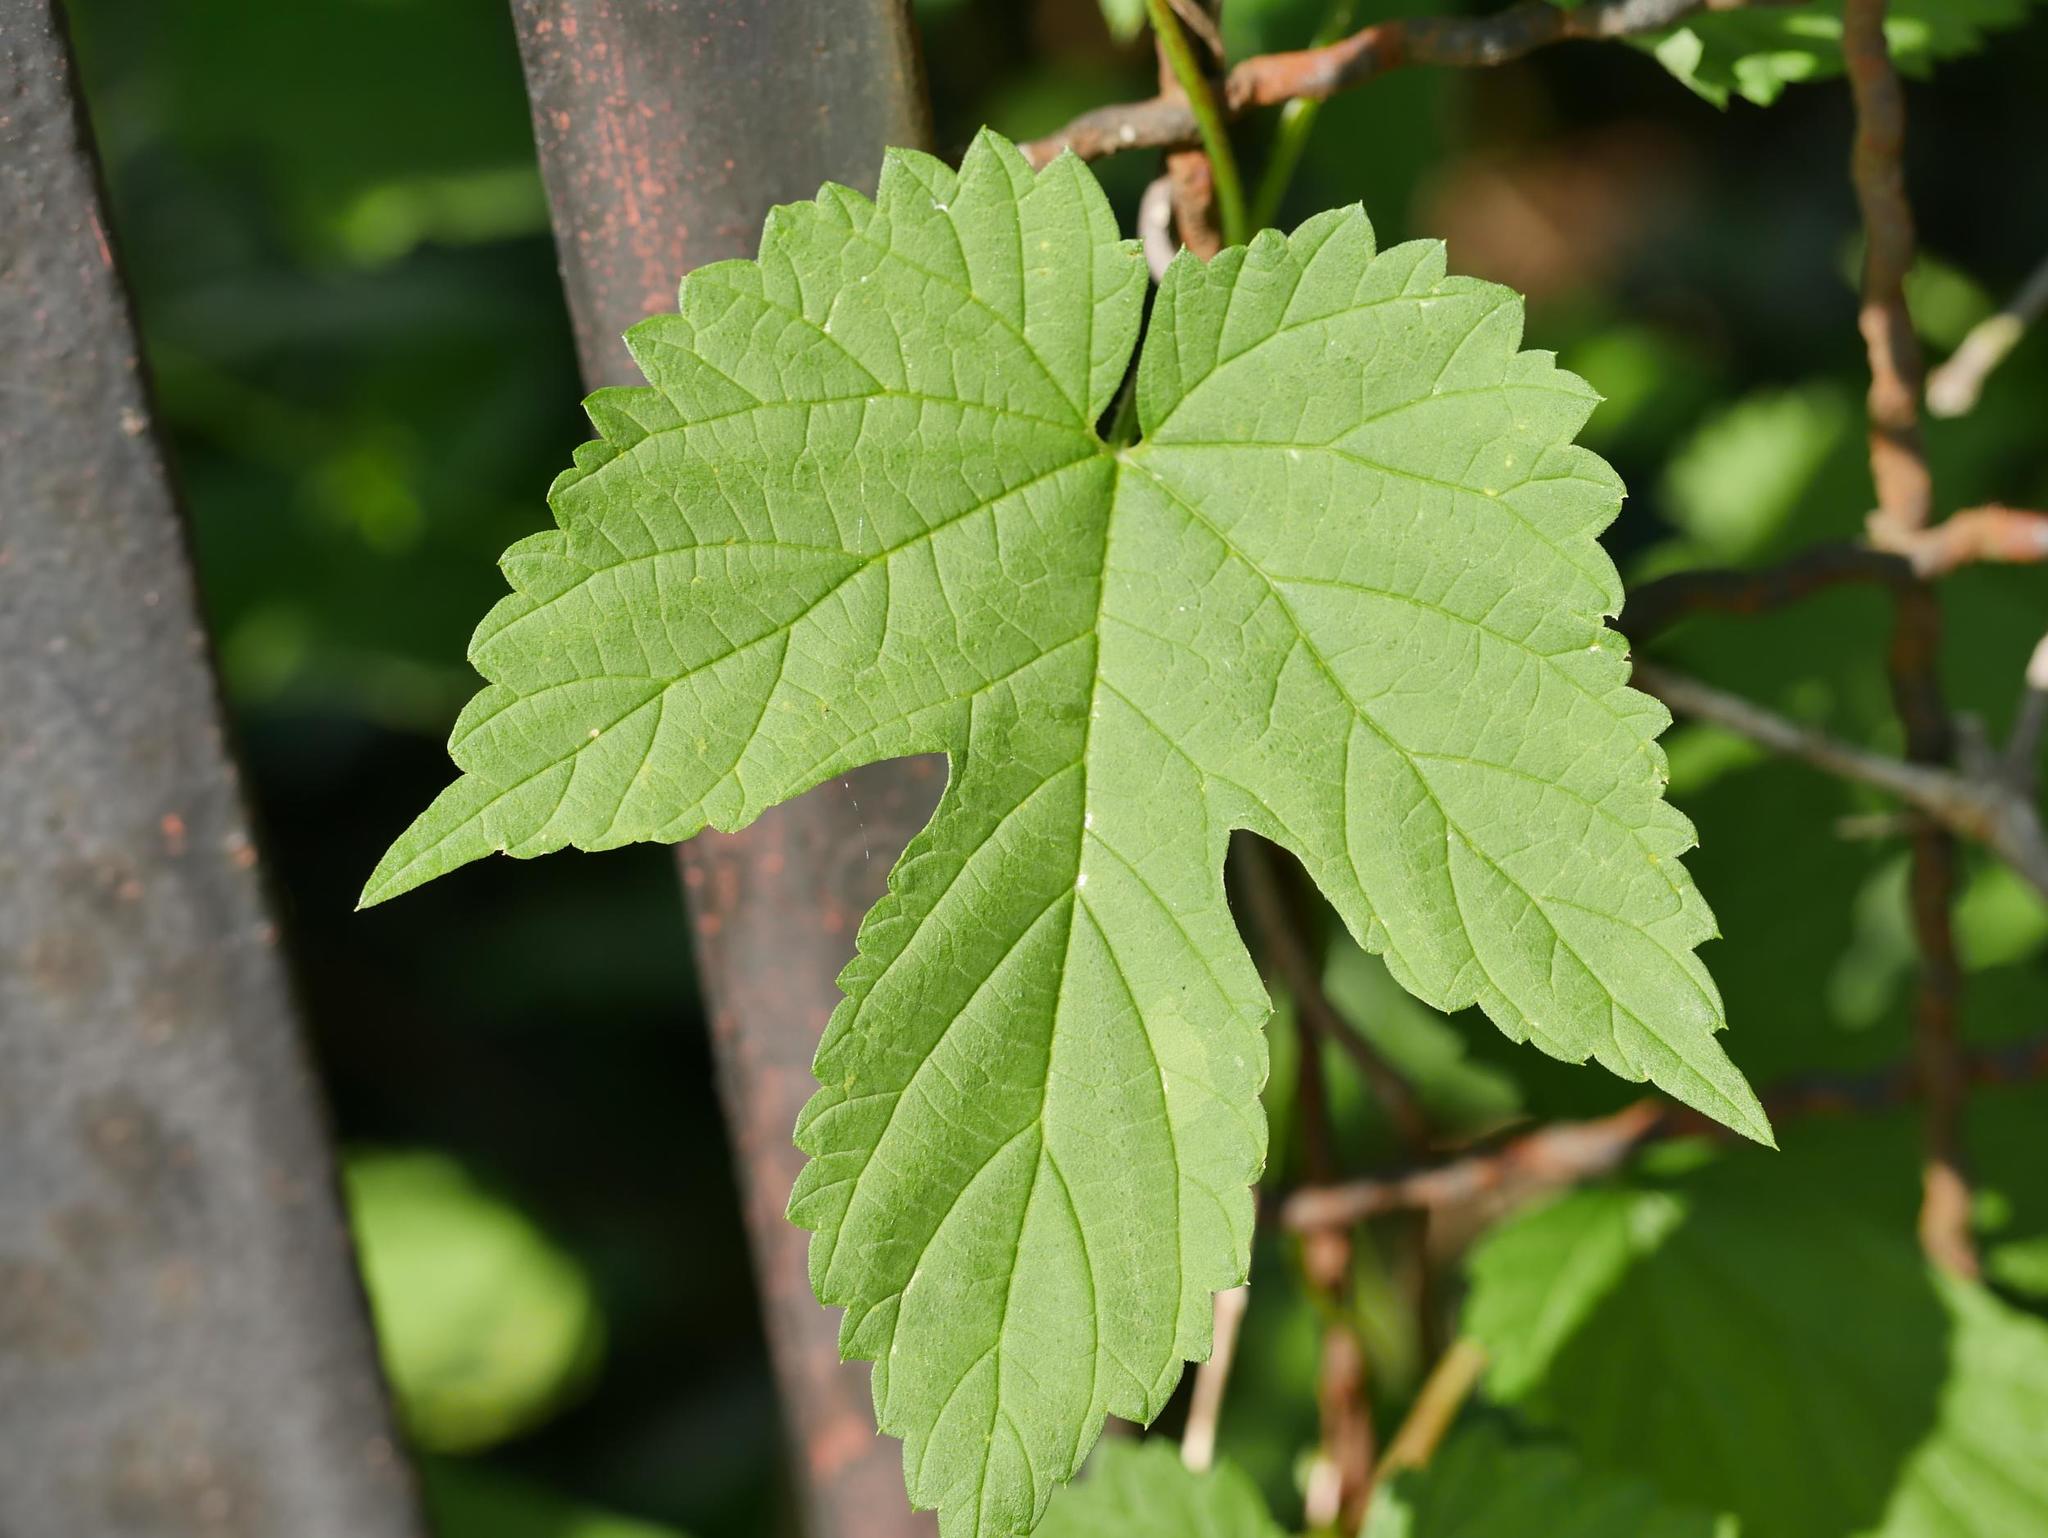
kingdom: Plantae
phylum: Tracheophyta
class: Magnoliopsida
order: Rosales
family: Cannabaceae
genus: Humulus
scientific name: Humulus lupulus
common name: Hop
